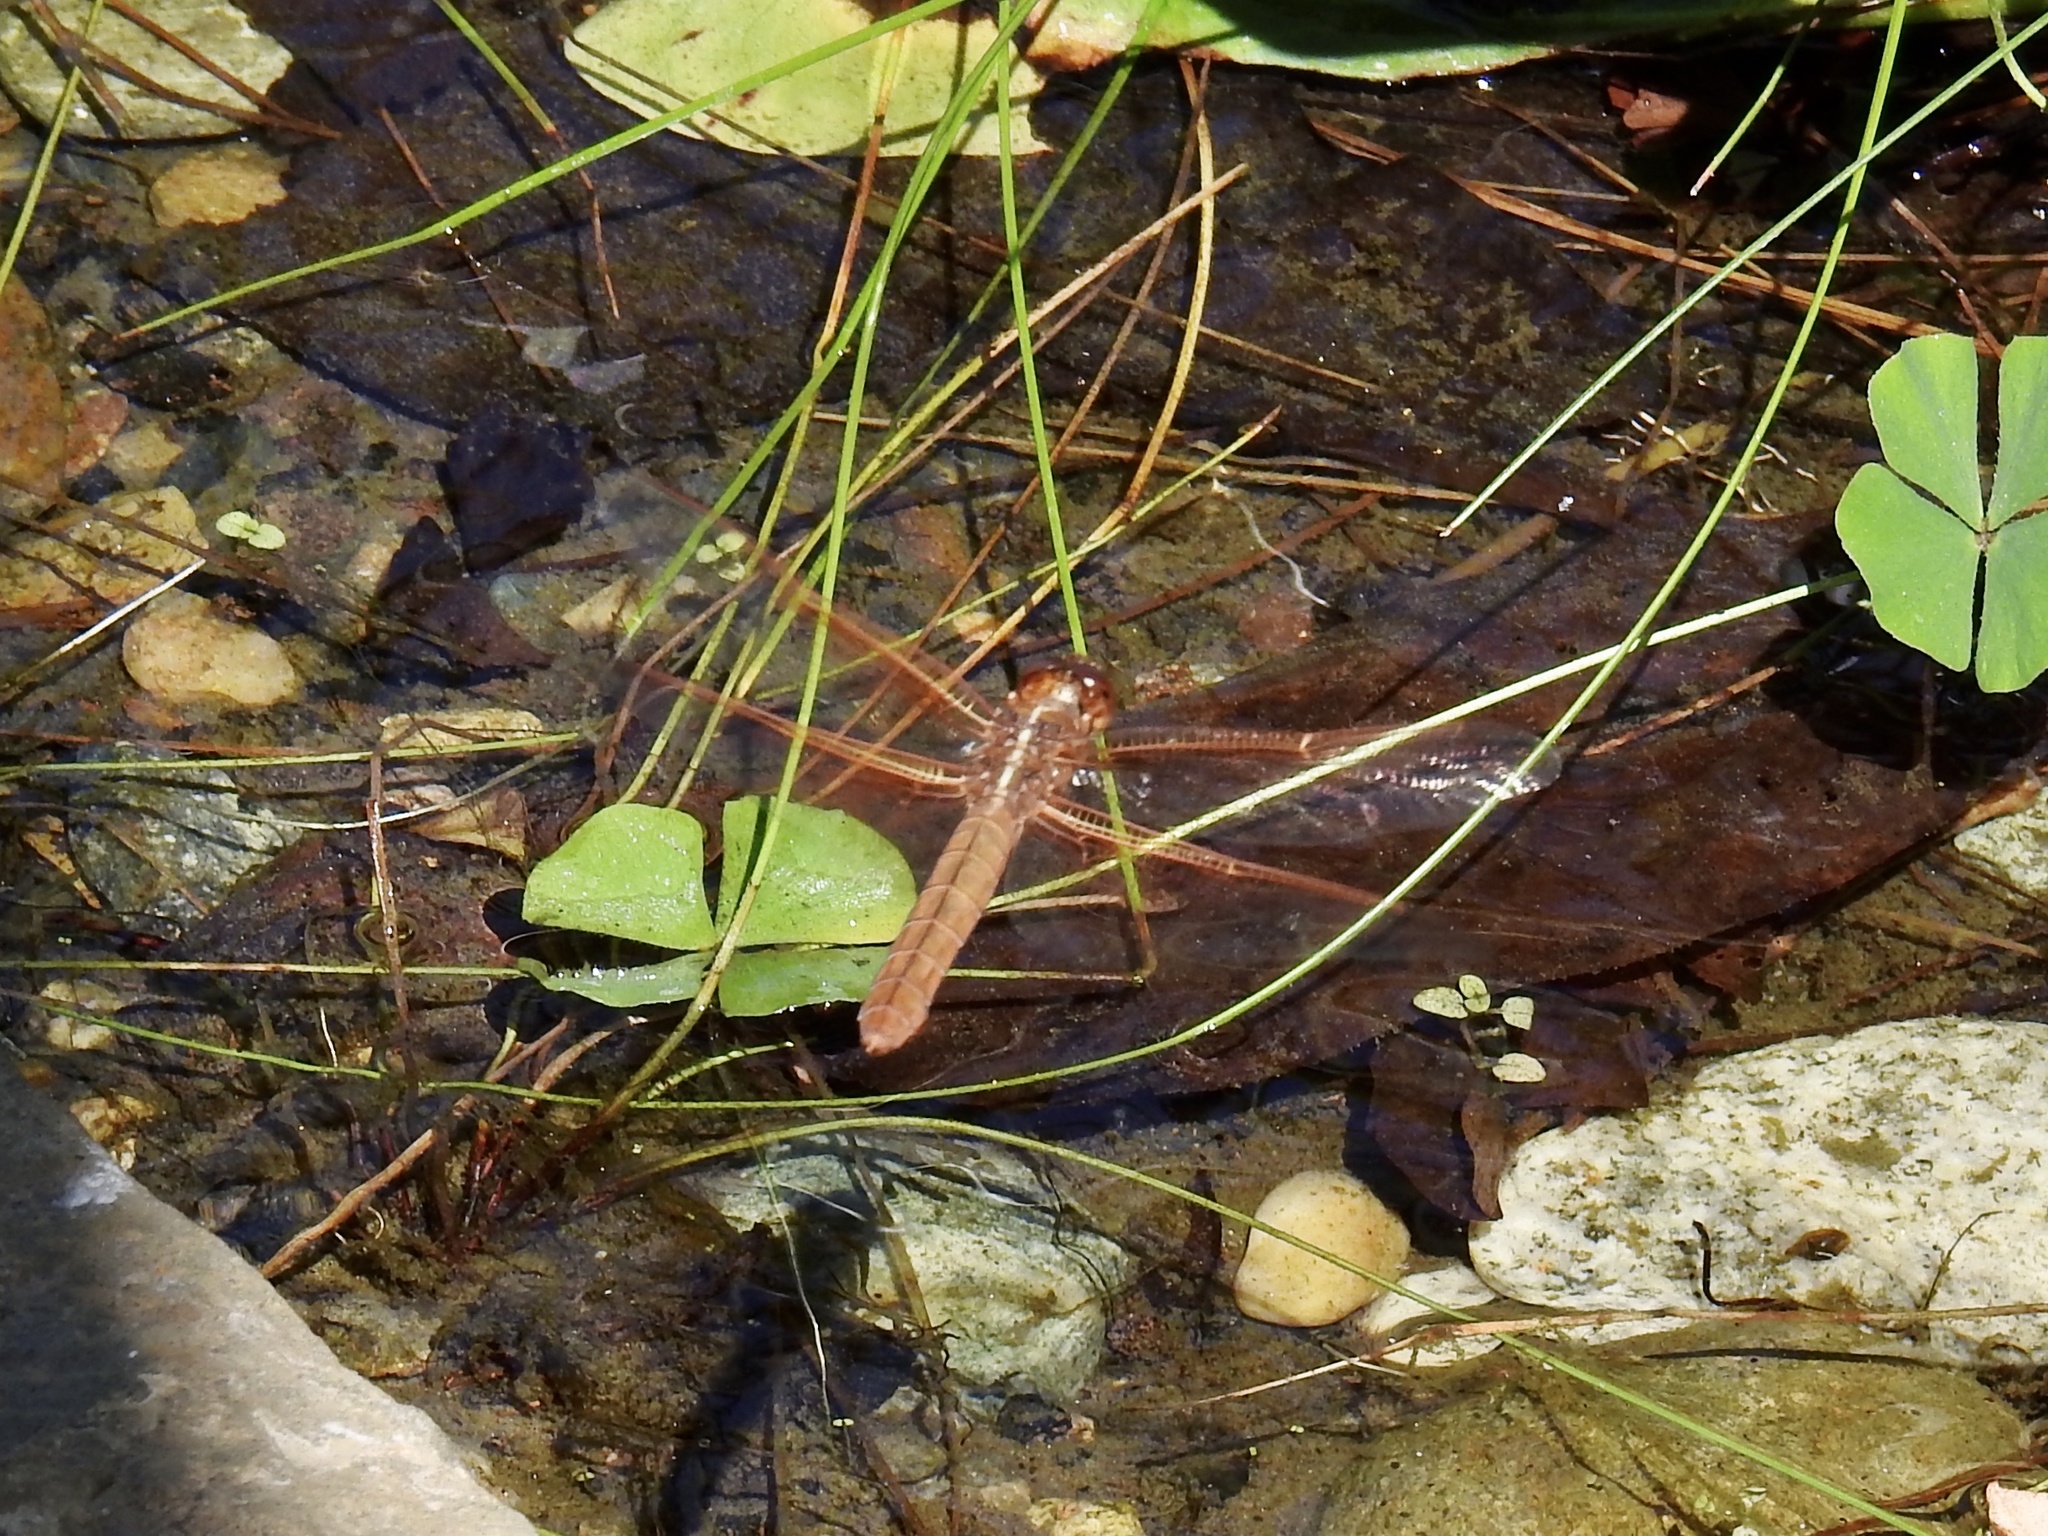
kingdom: Animalia
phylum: Arthropoda
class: Insecta
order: Odonata
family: Libellulidae
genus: Libellula
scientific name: Libellula saturata
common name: Flame skimmer
